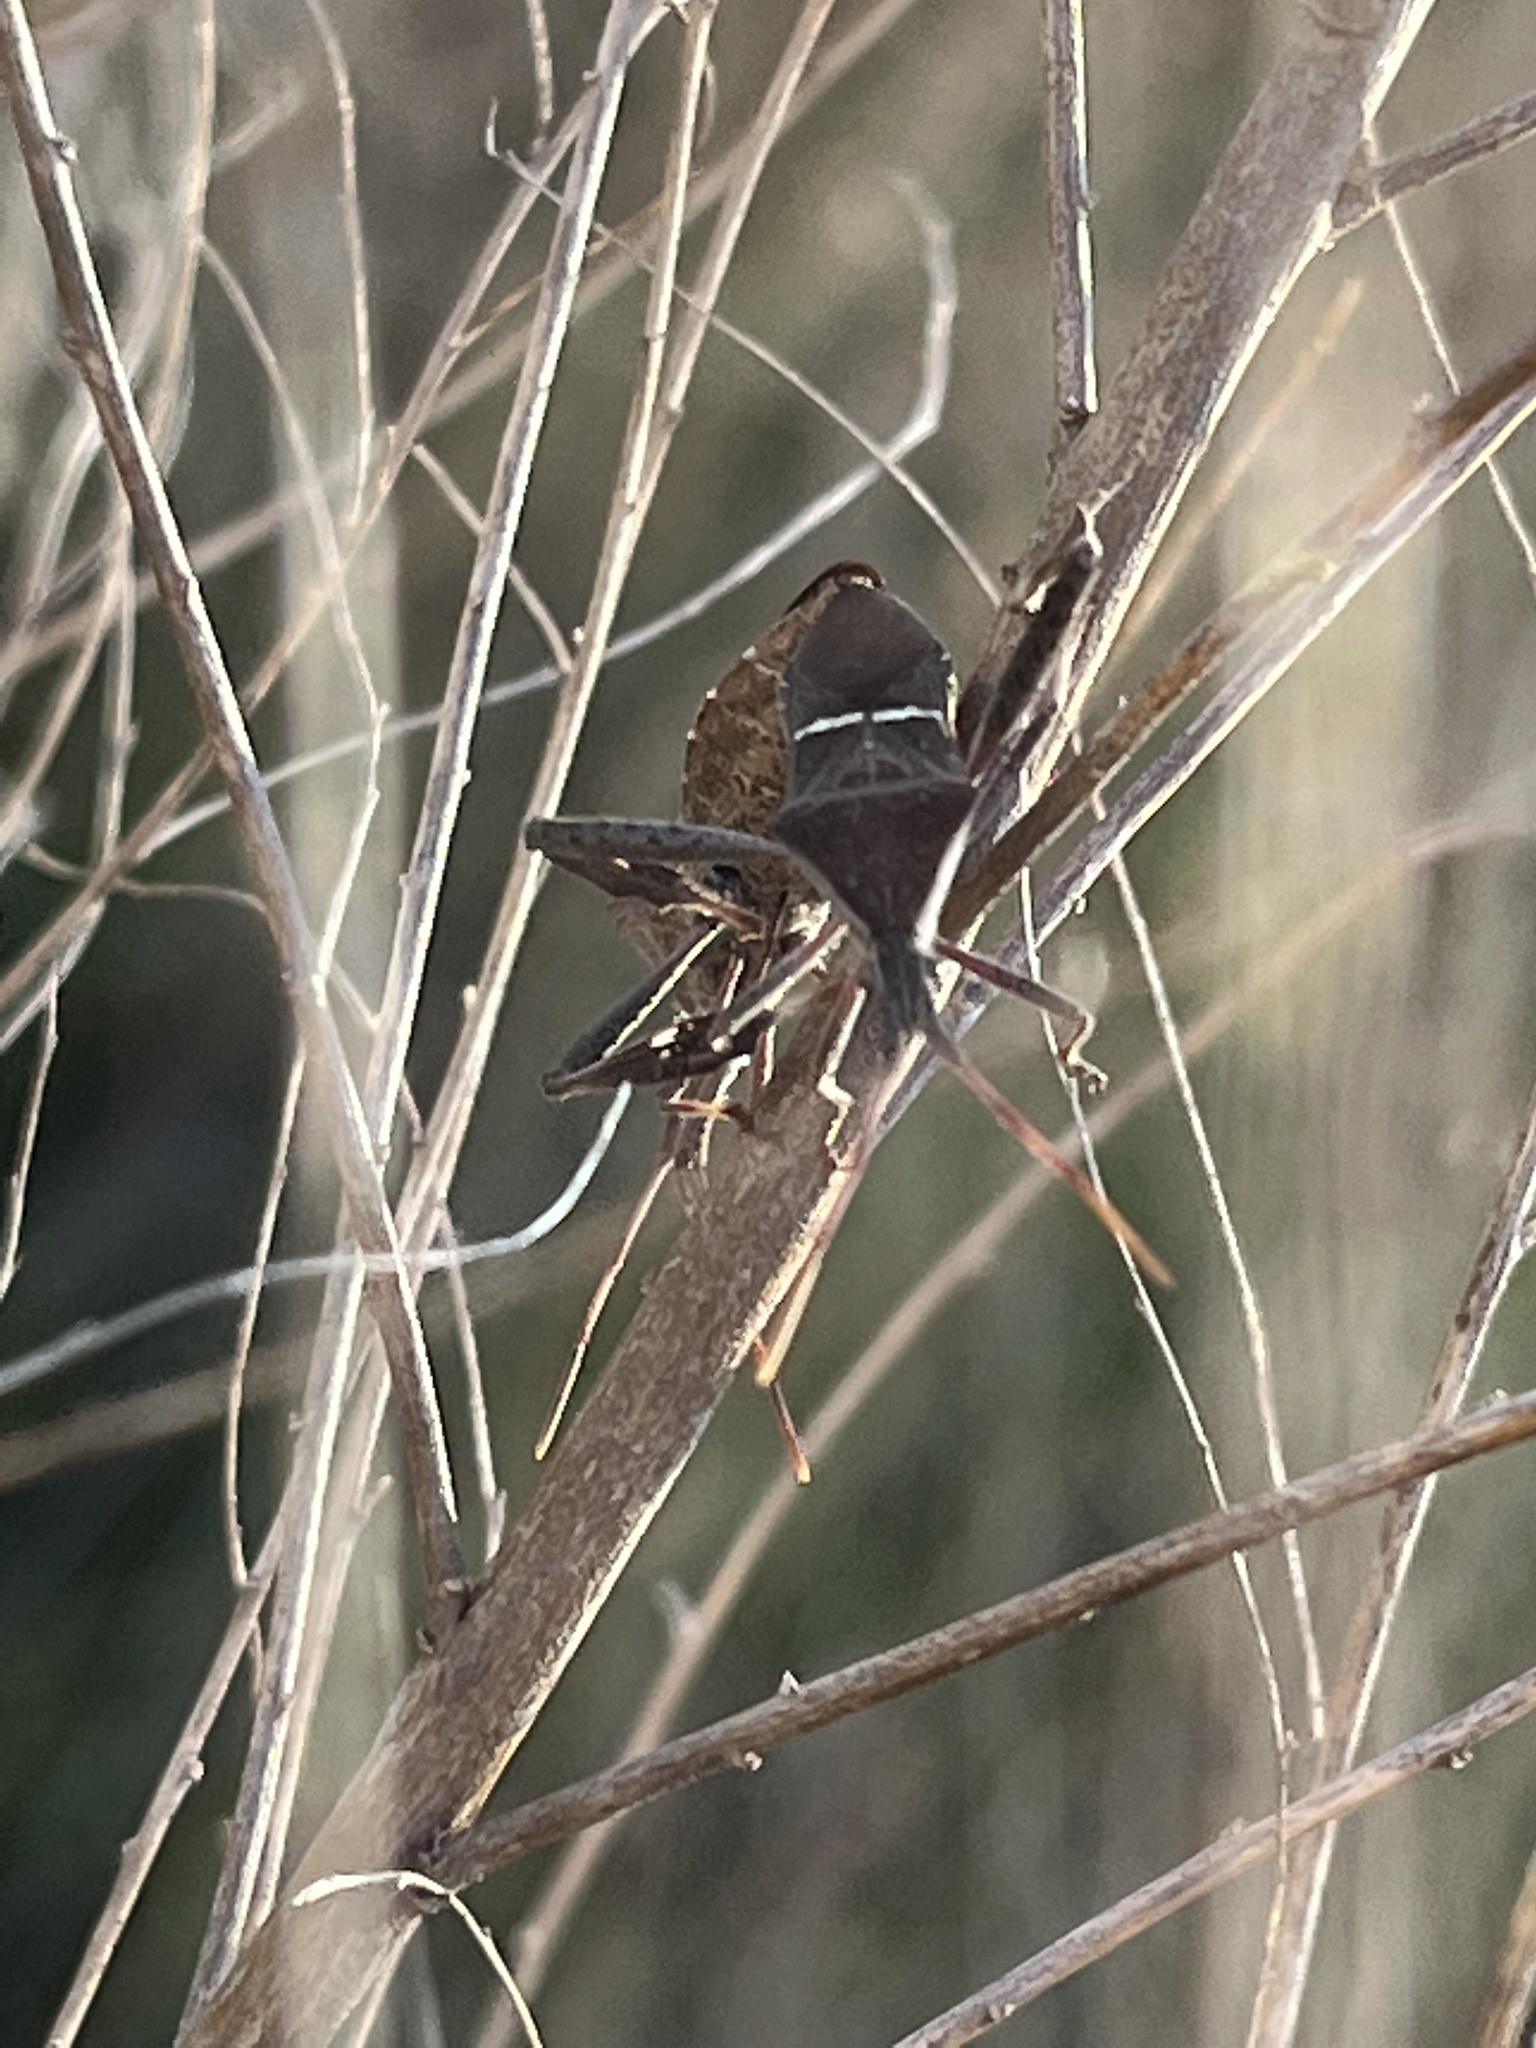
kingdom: Animalia
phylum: Arthropoda
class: Insecta
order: Hemiptera
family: Coreidae
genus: Leptoglossus
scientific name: Leptoglossus phyllopus
